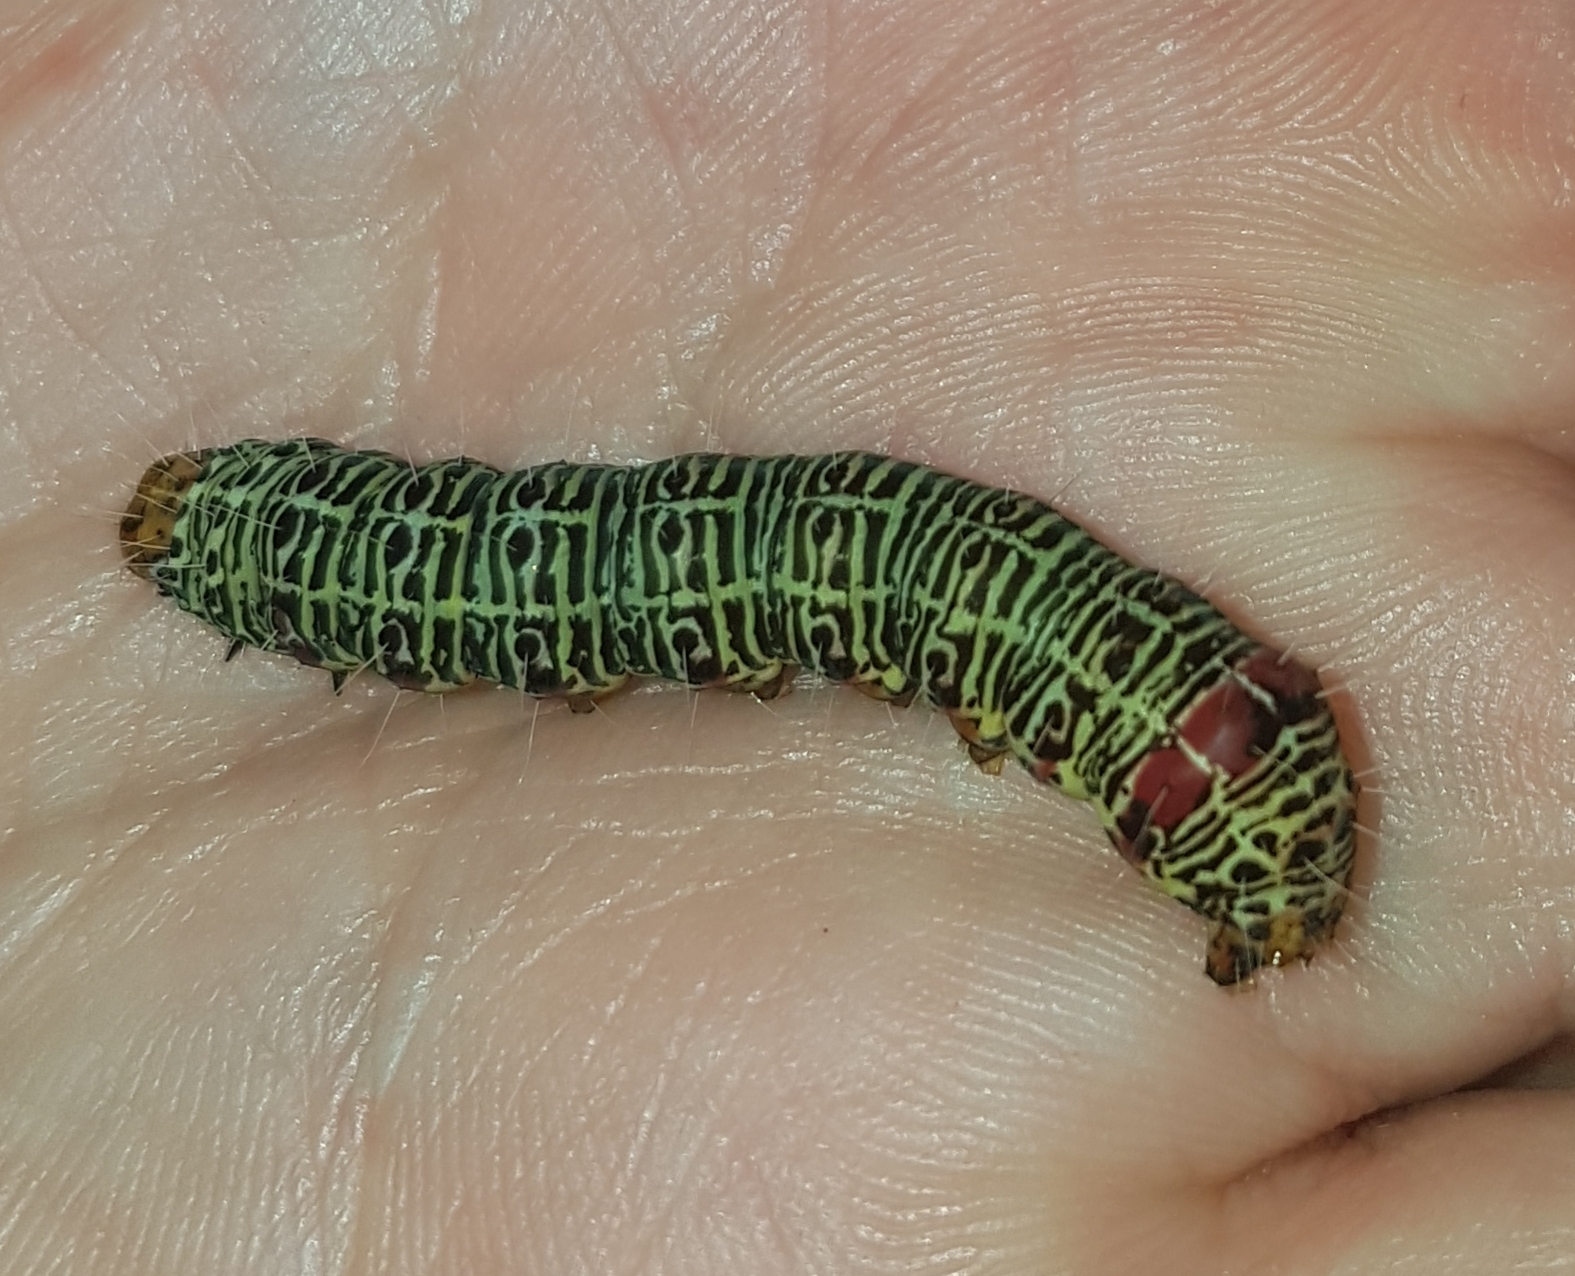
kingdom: Animalia
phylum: Arthropoda
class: Insecta
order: Lepidoptera
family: Noctuidae
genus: Phalaenoides
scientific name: Phalaenoides glycinae
